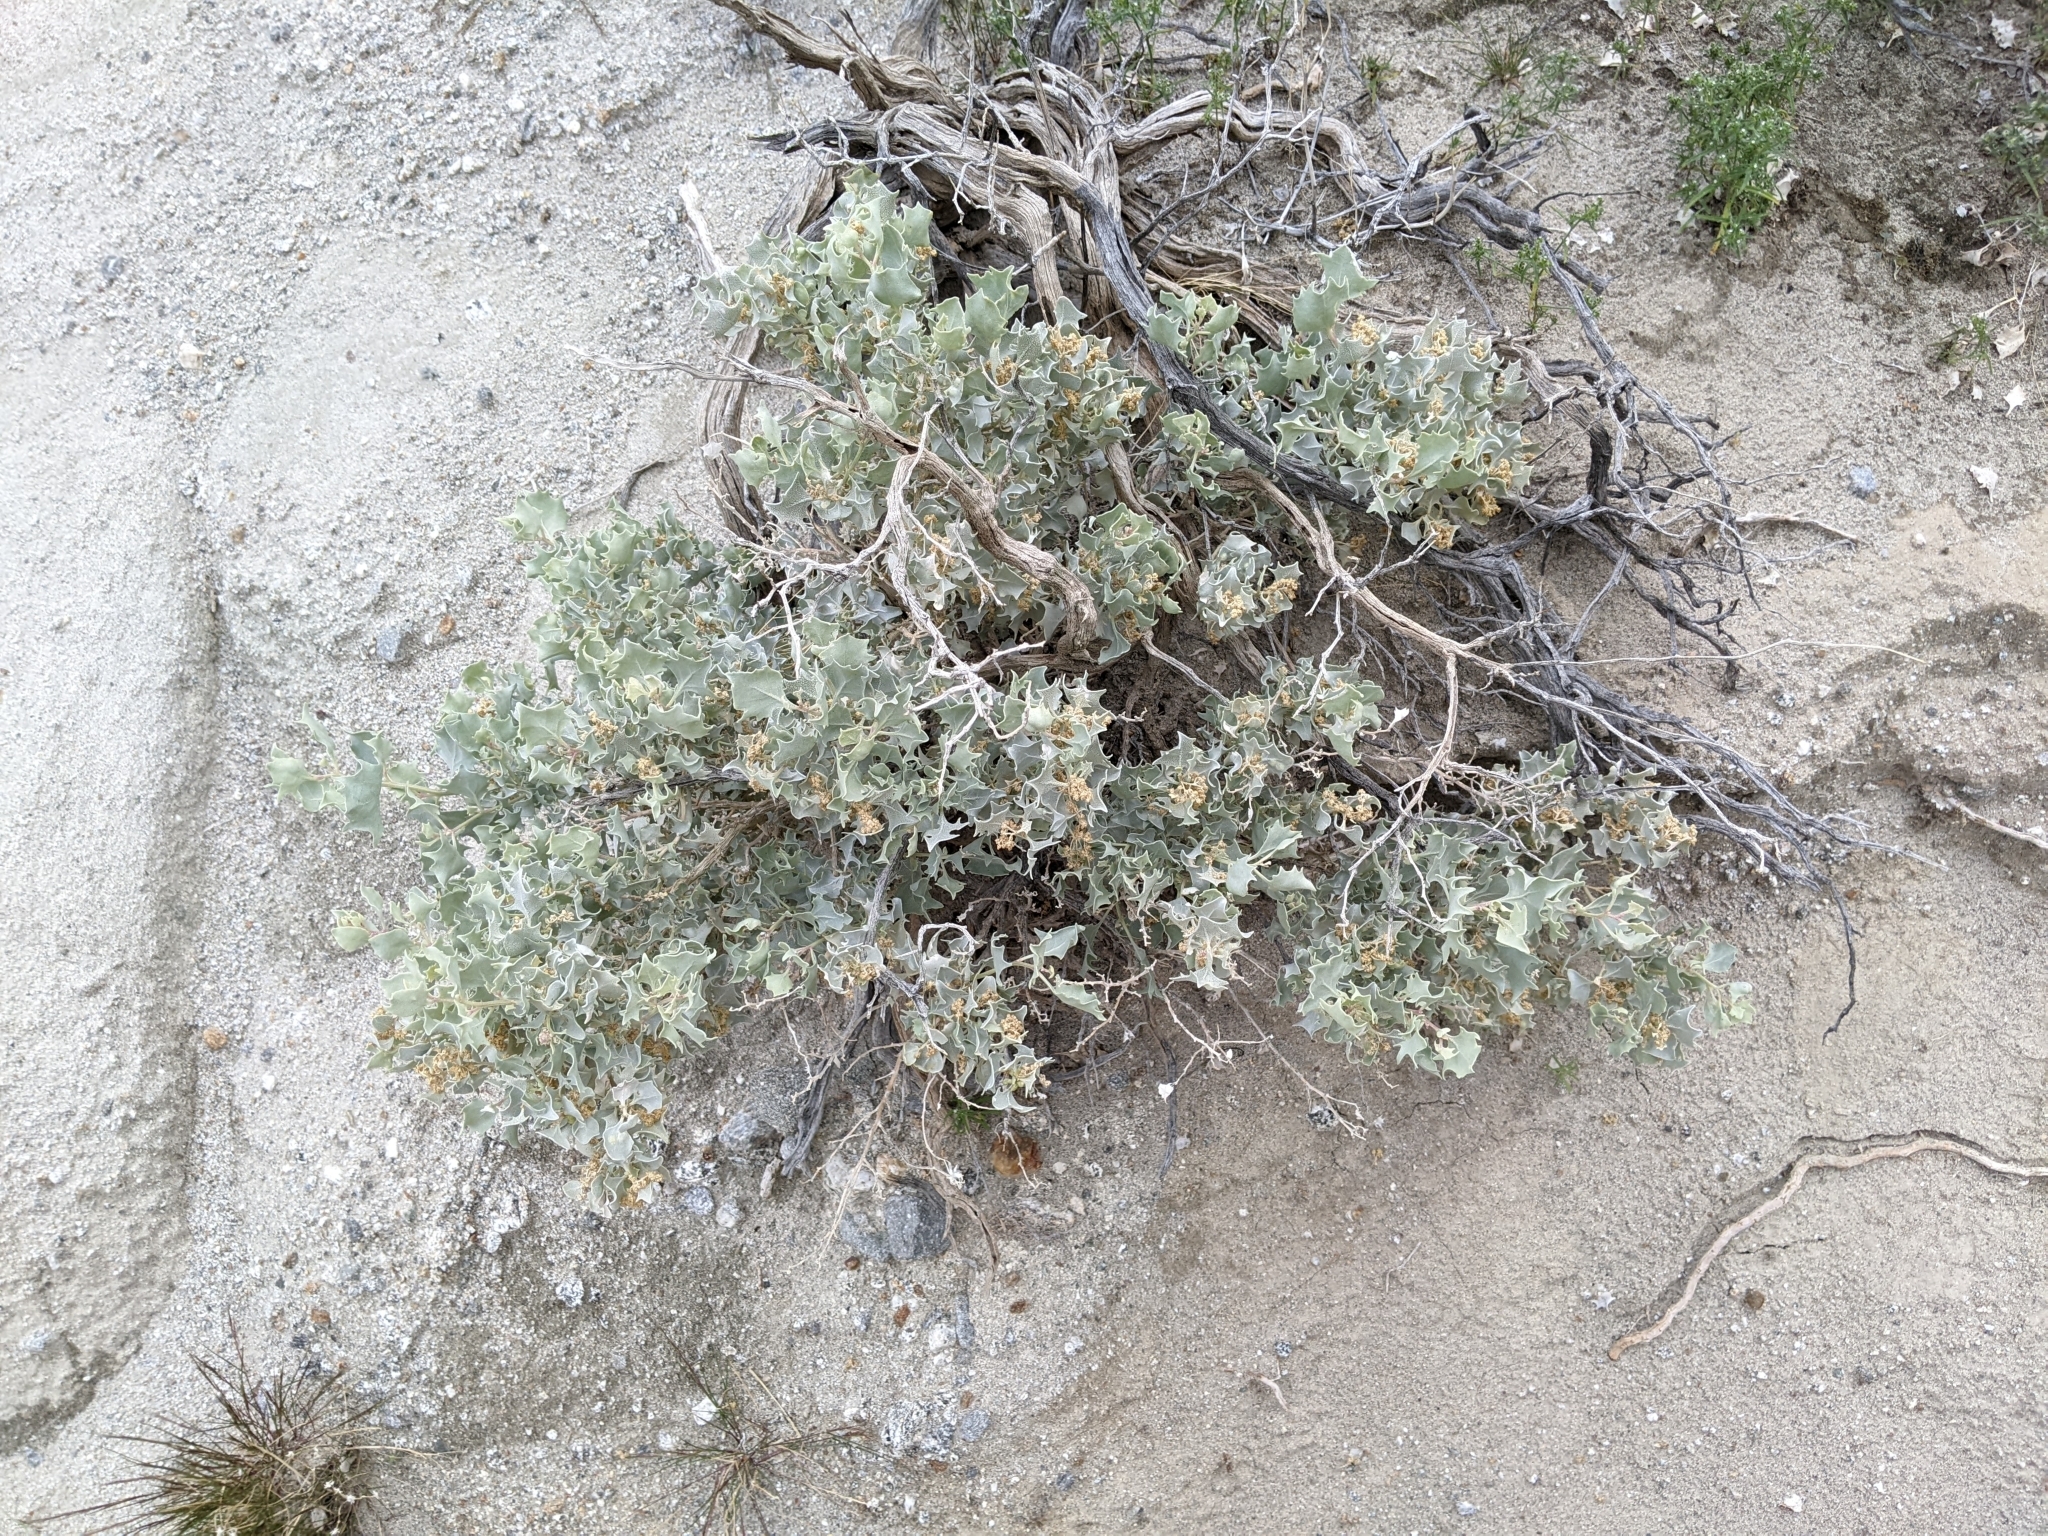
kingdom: Plantae
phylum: Tracheophyta
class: Magnoliopsida
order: Caryophyllales
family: Amaranthaceae
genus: Atriplex
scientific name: Atriplex hymenelytra
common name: Desert-holly
